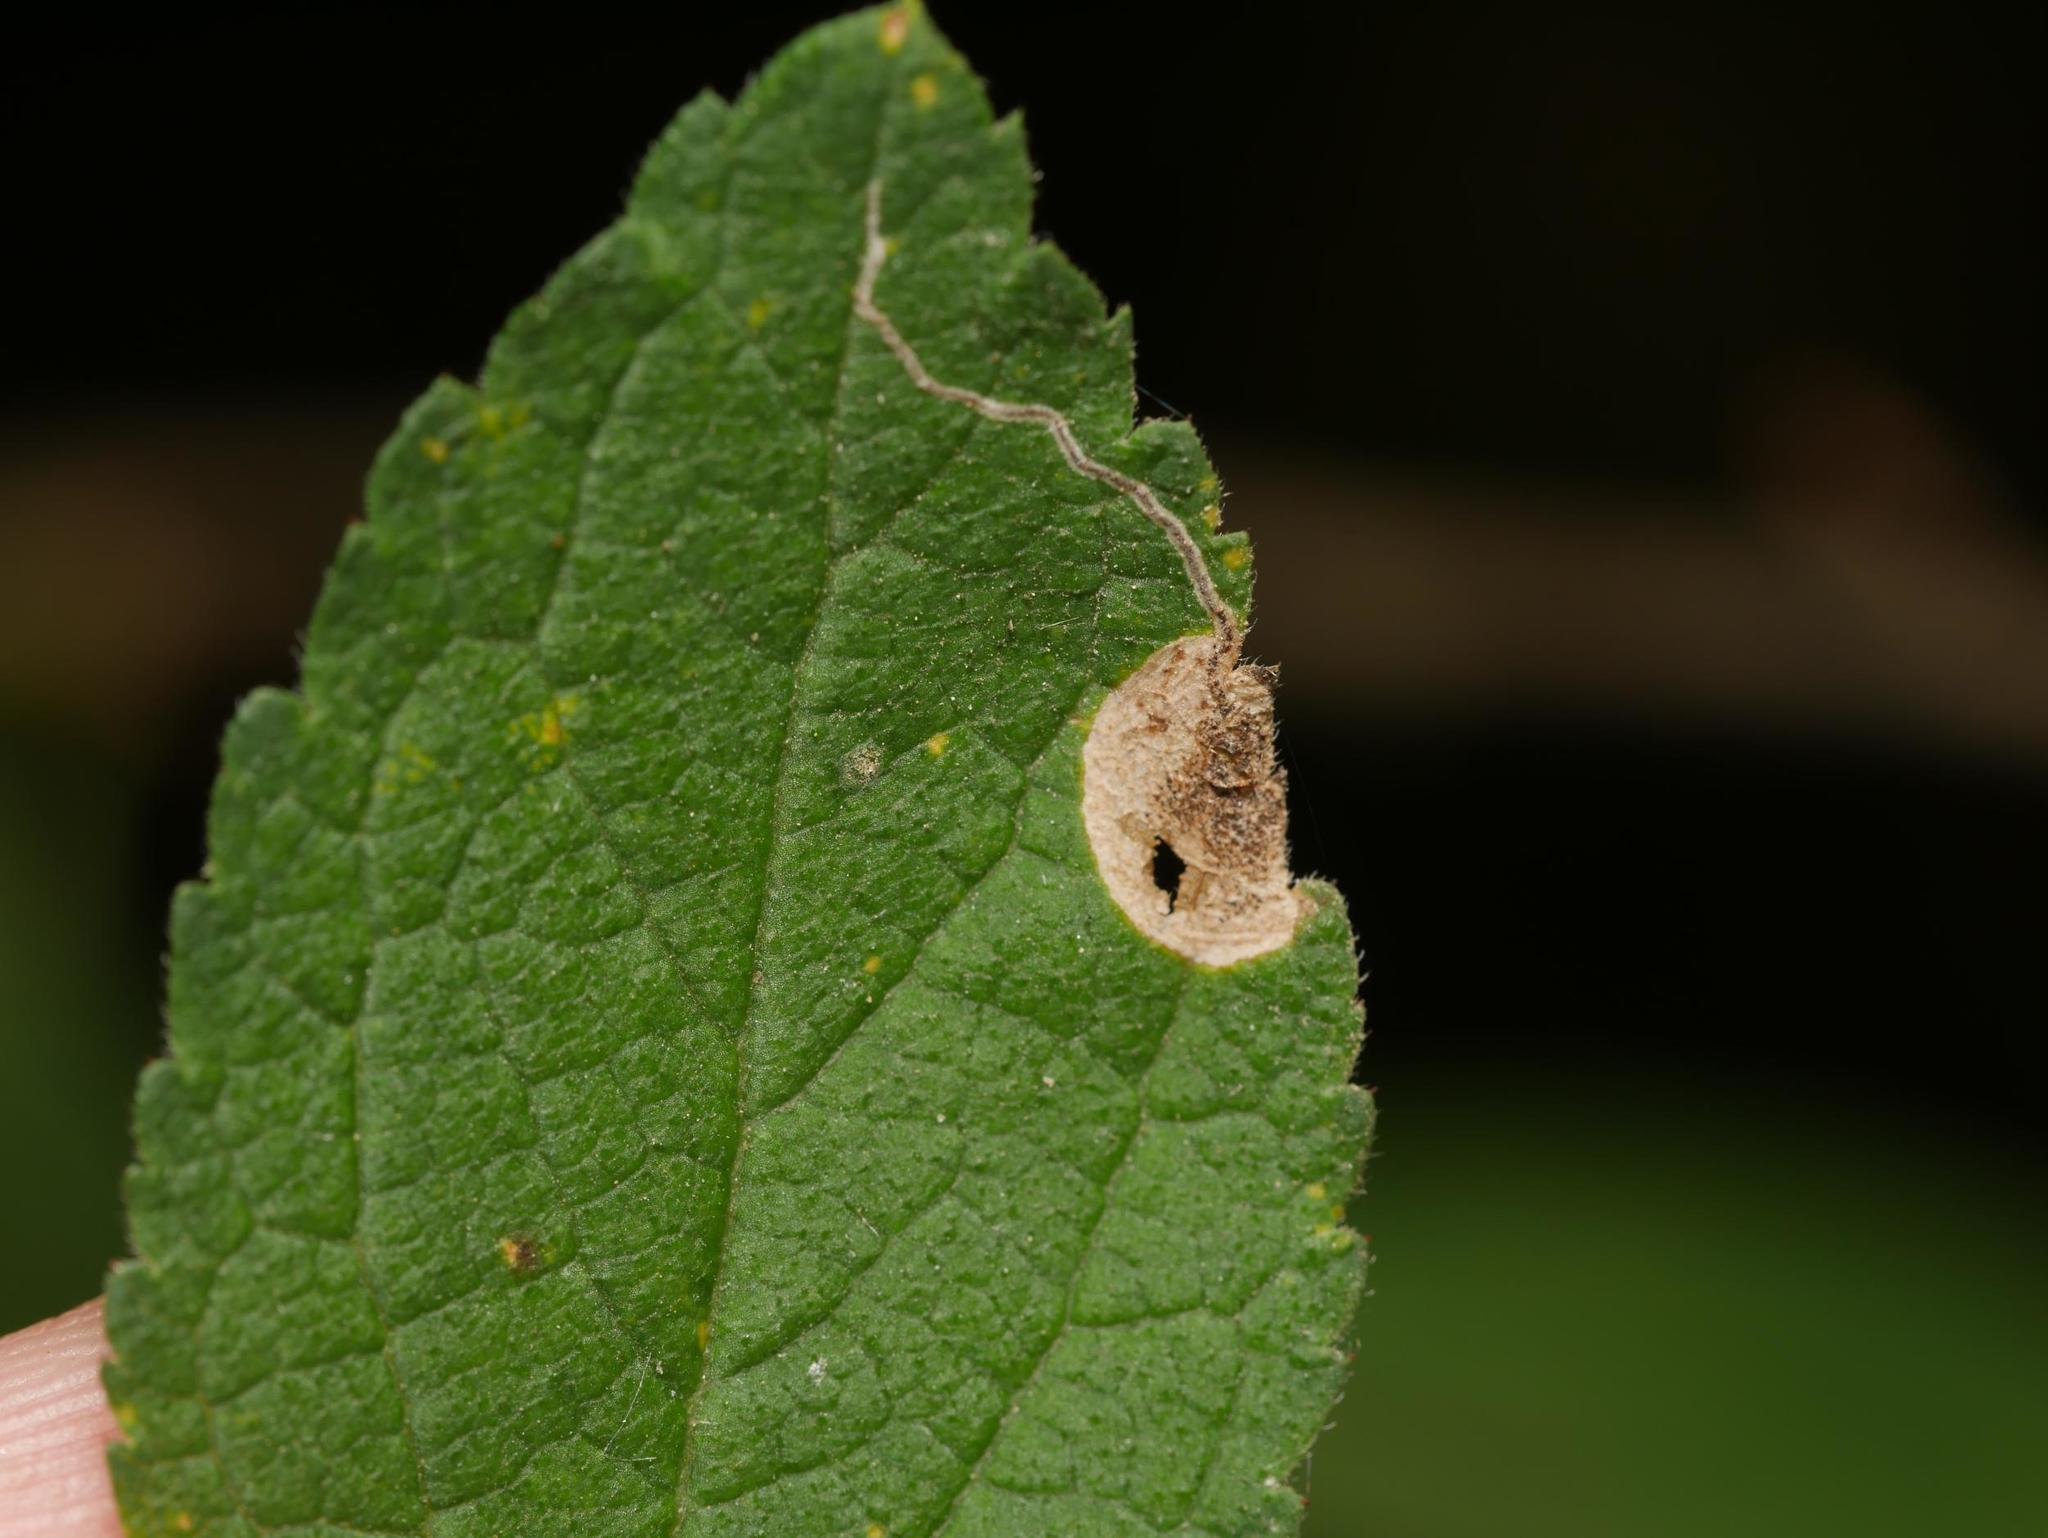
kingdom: Animalia
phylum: Arthropoda
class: Insecta
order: Lepidoptera
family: Nepticulidae
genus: Stigmella
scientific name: Stigmella plagicolella
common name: Scrubland pigmy
